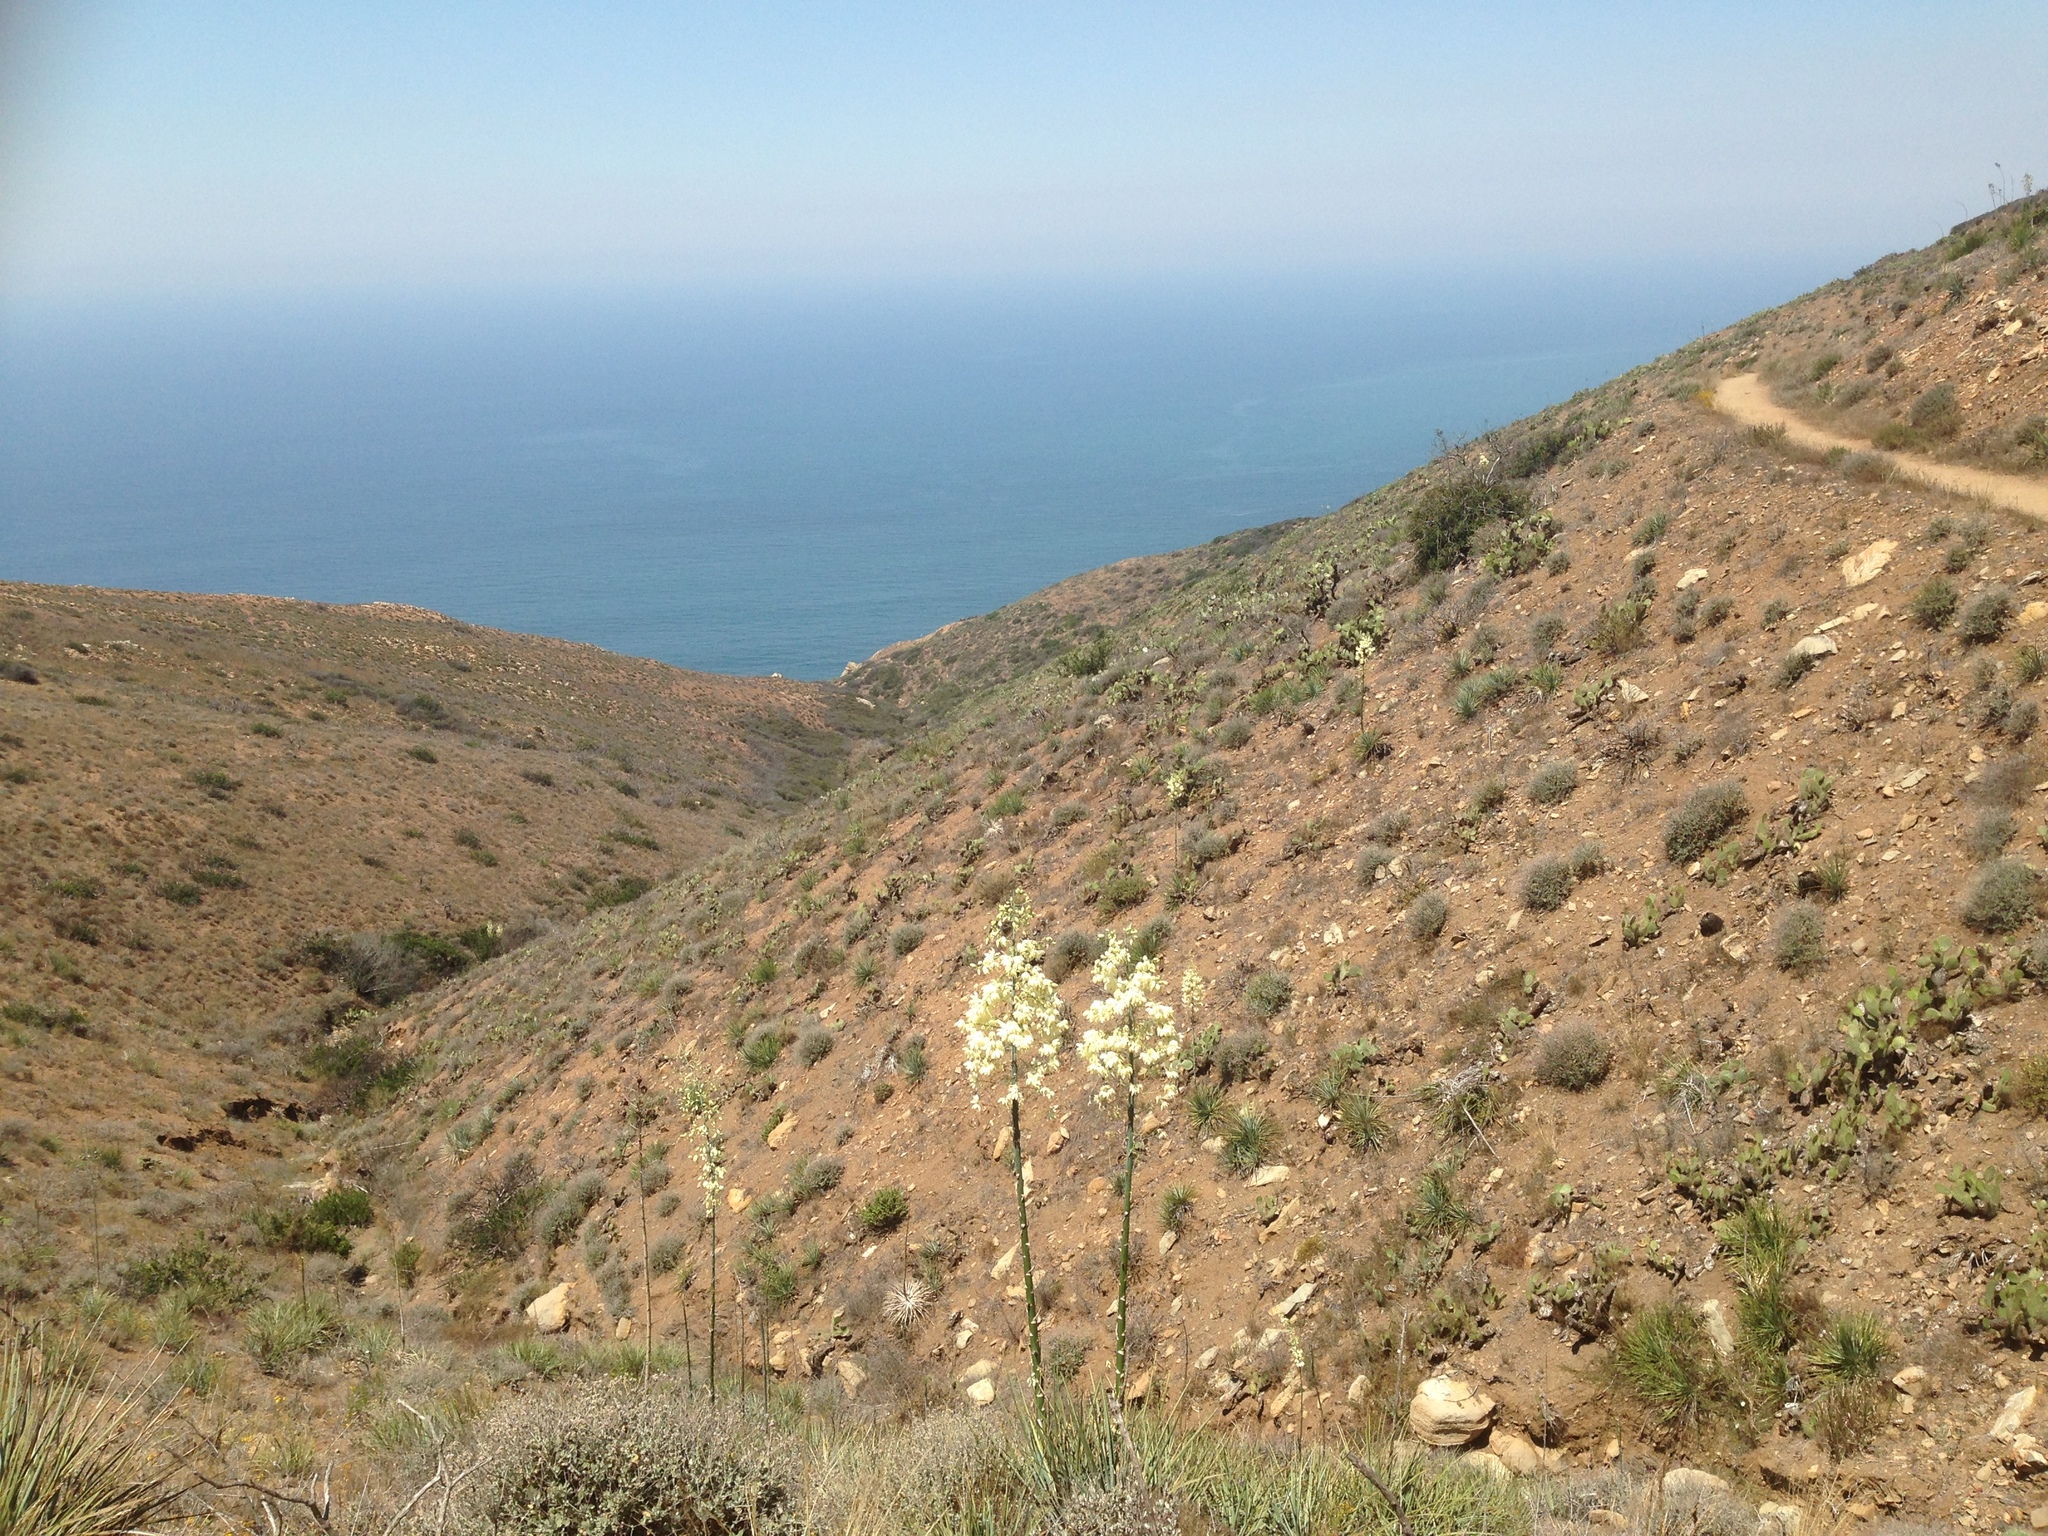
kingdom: Plantae
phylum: Tracheophyta
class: Liliopsida
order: Asparagales
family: Asparagaceae
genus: Hesperoyucca
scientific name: Hesperoyucca whipplei
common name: Our lord's-candle
